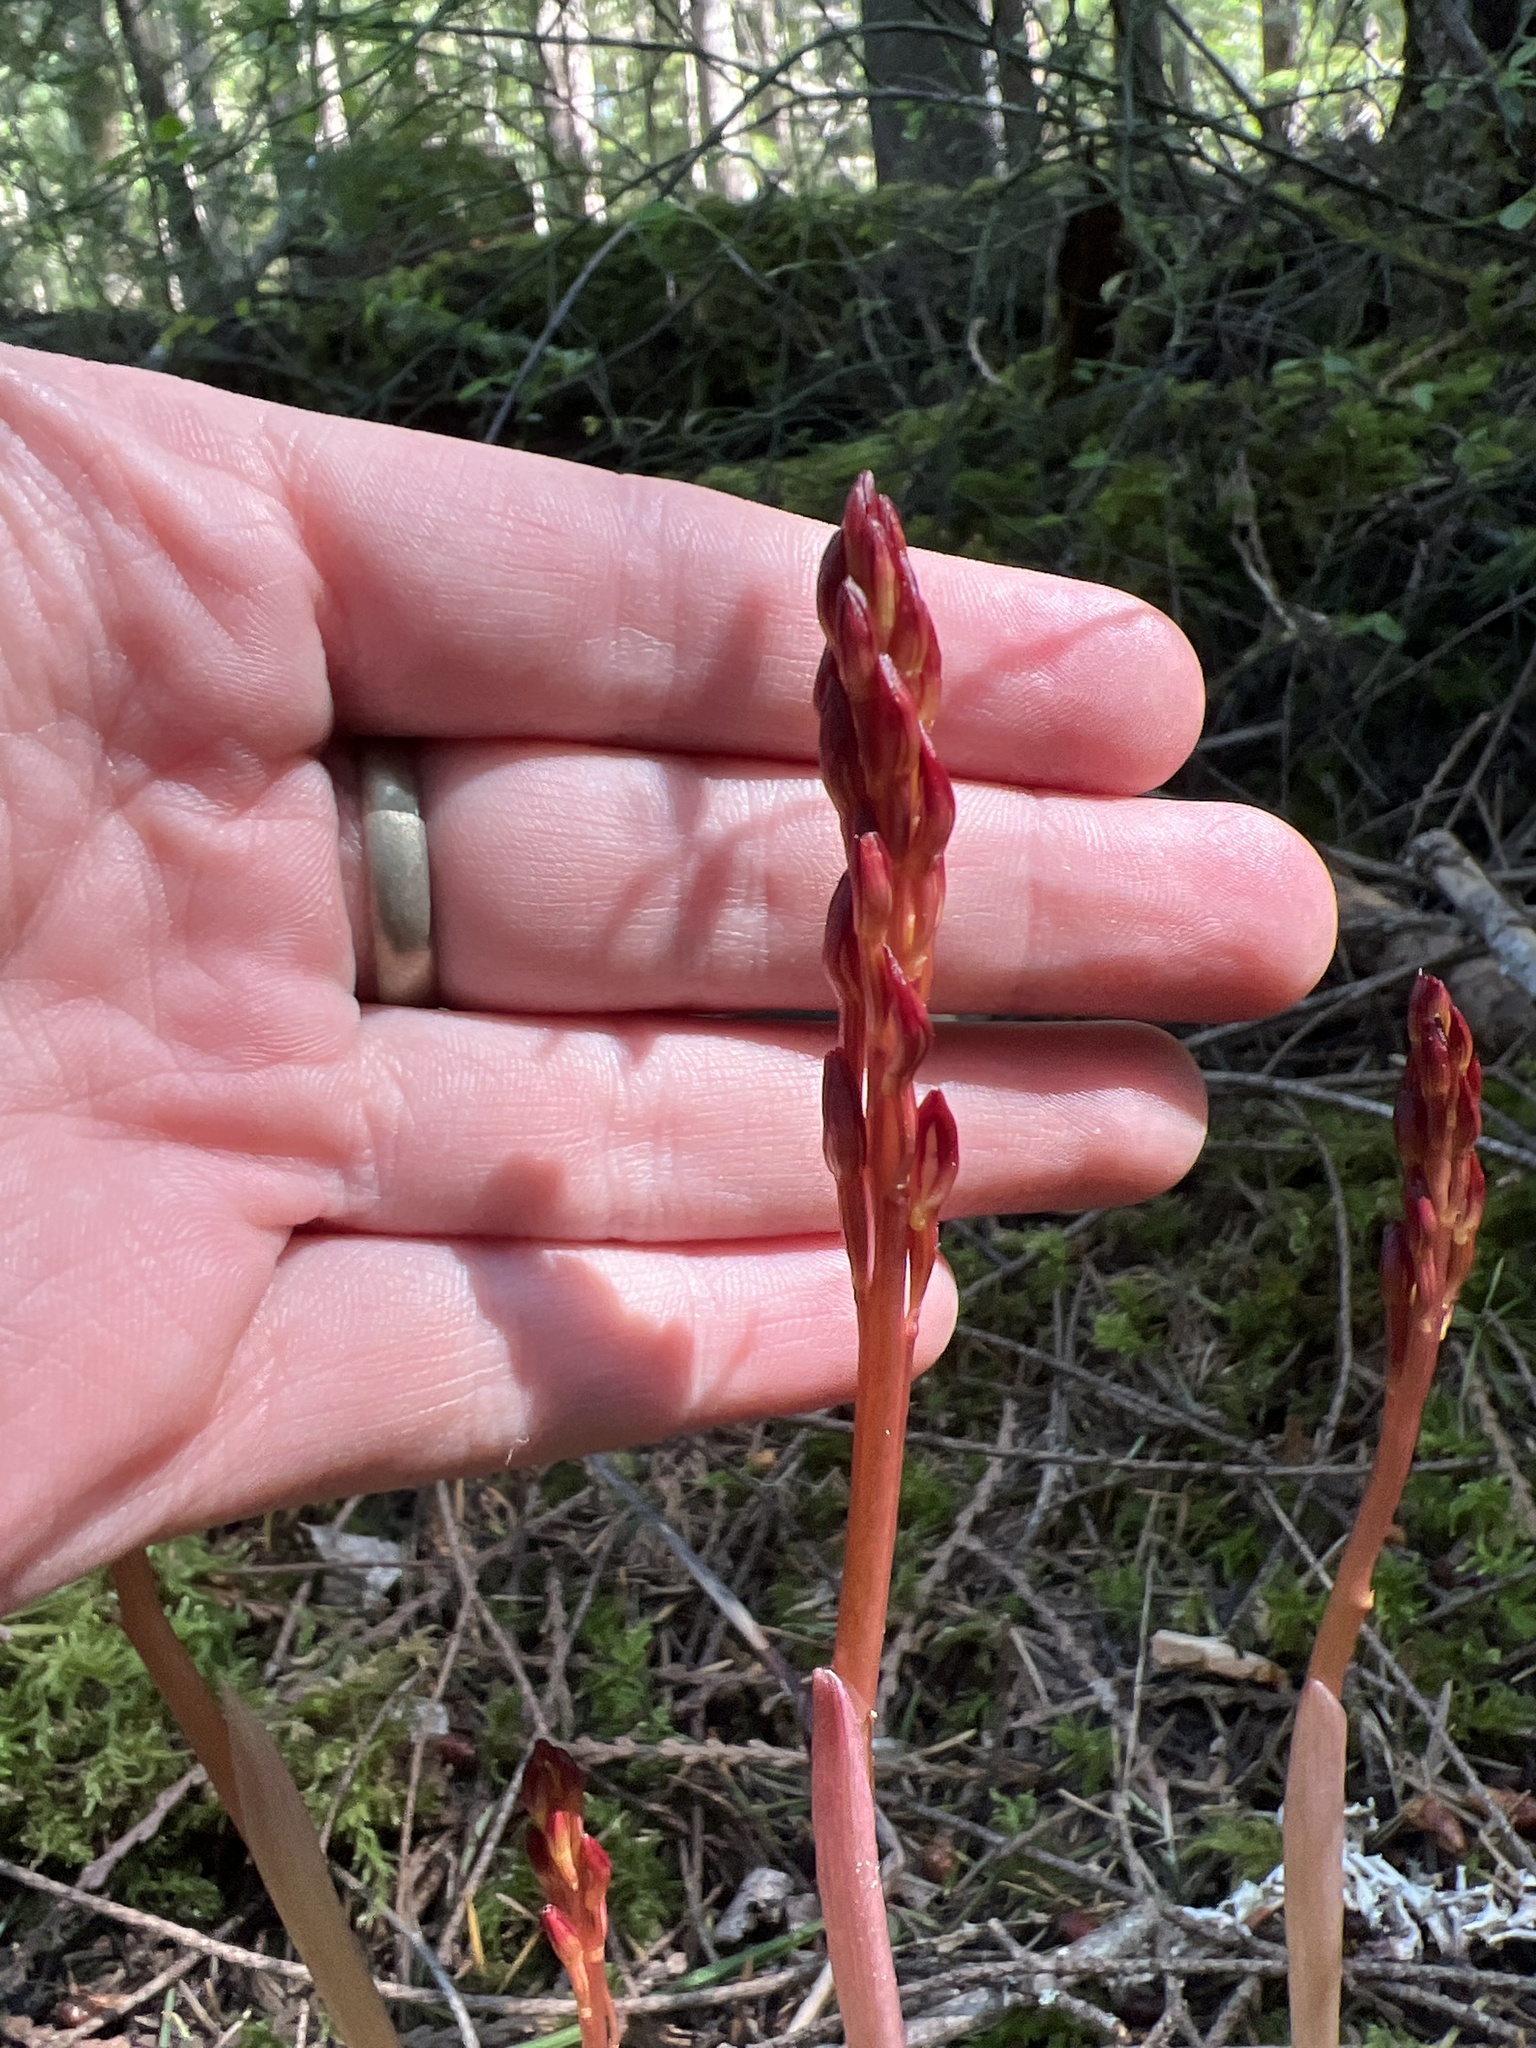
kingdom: Plantae
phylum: Tracheophyta
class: Liliopsida
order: Asparagales
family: Orchidaceae
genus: Corallorhiza
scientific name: Corallorhiza maculata
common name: Spotted coralroot
